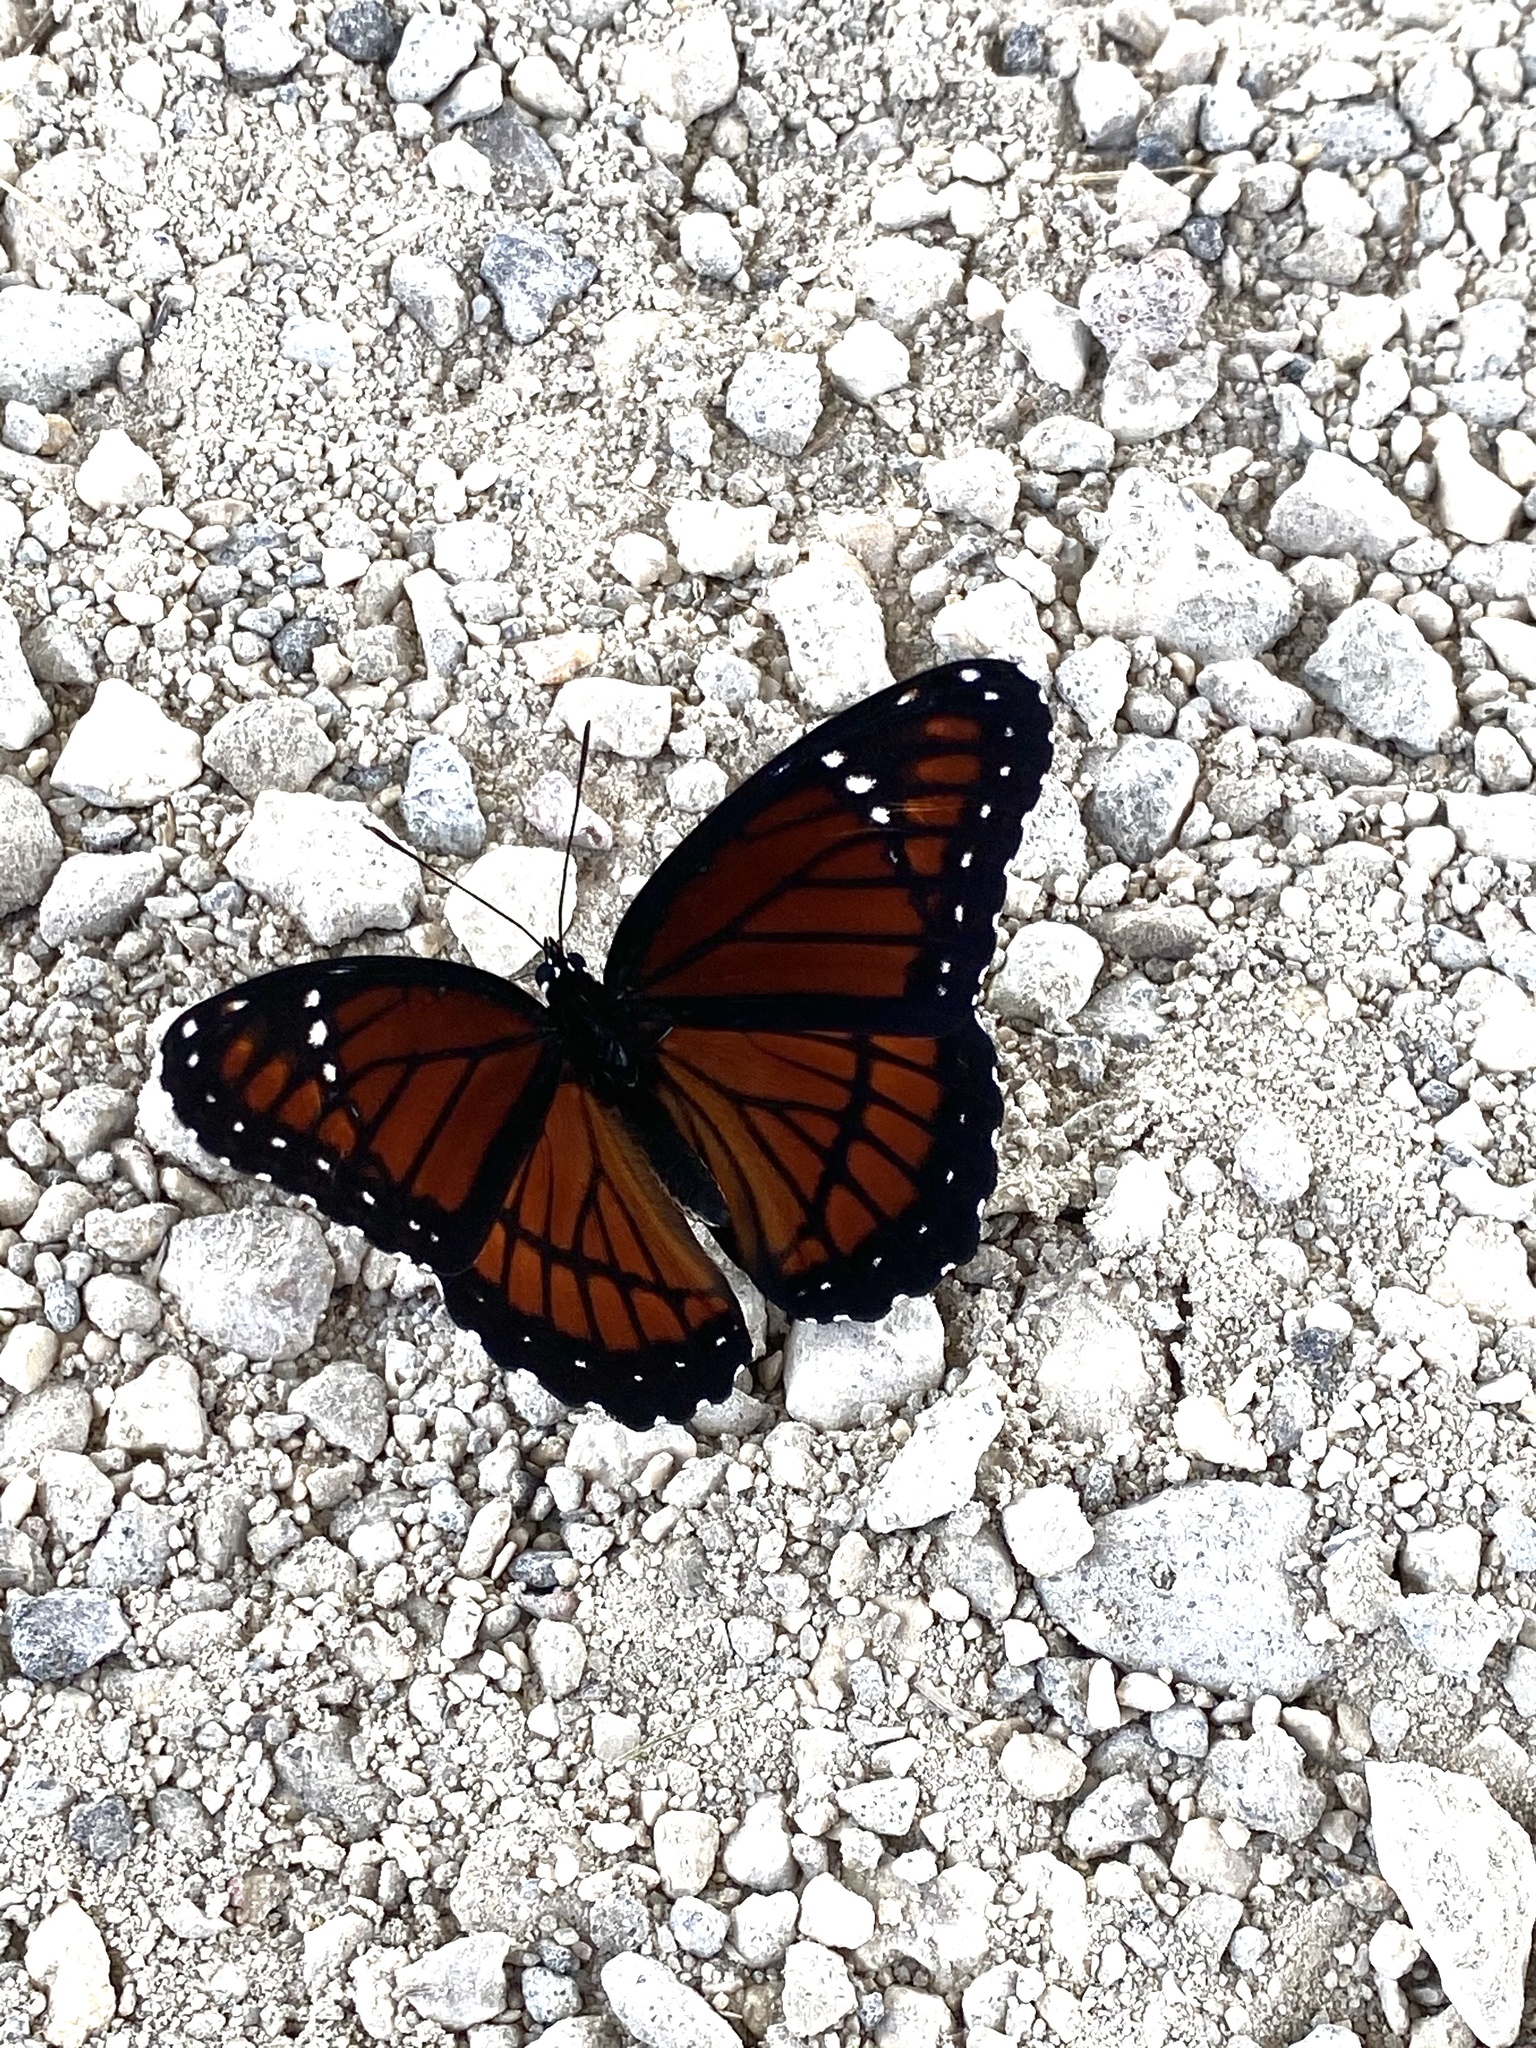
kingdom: Animalia
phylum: Arthropoda
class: Insecta
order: Lepidoptera
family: Nymphalidae
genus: Limenitis
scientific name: Limenitis archippus
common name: Viceroy
